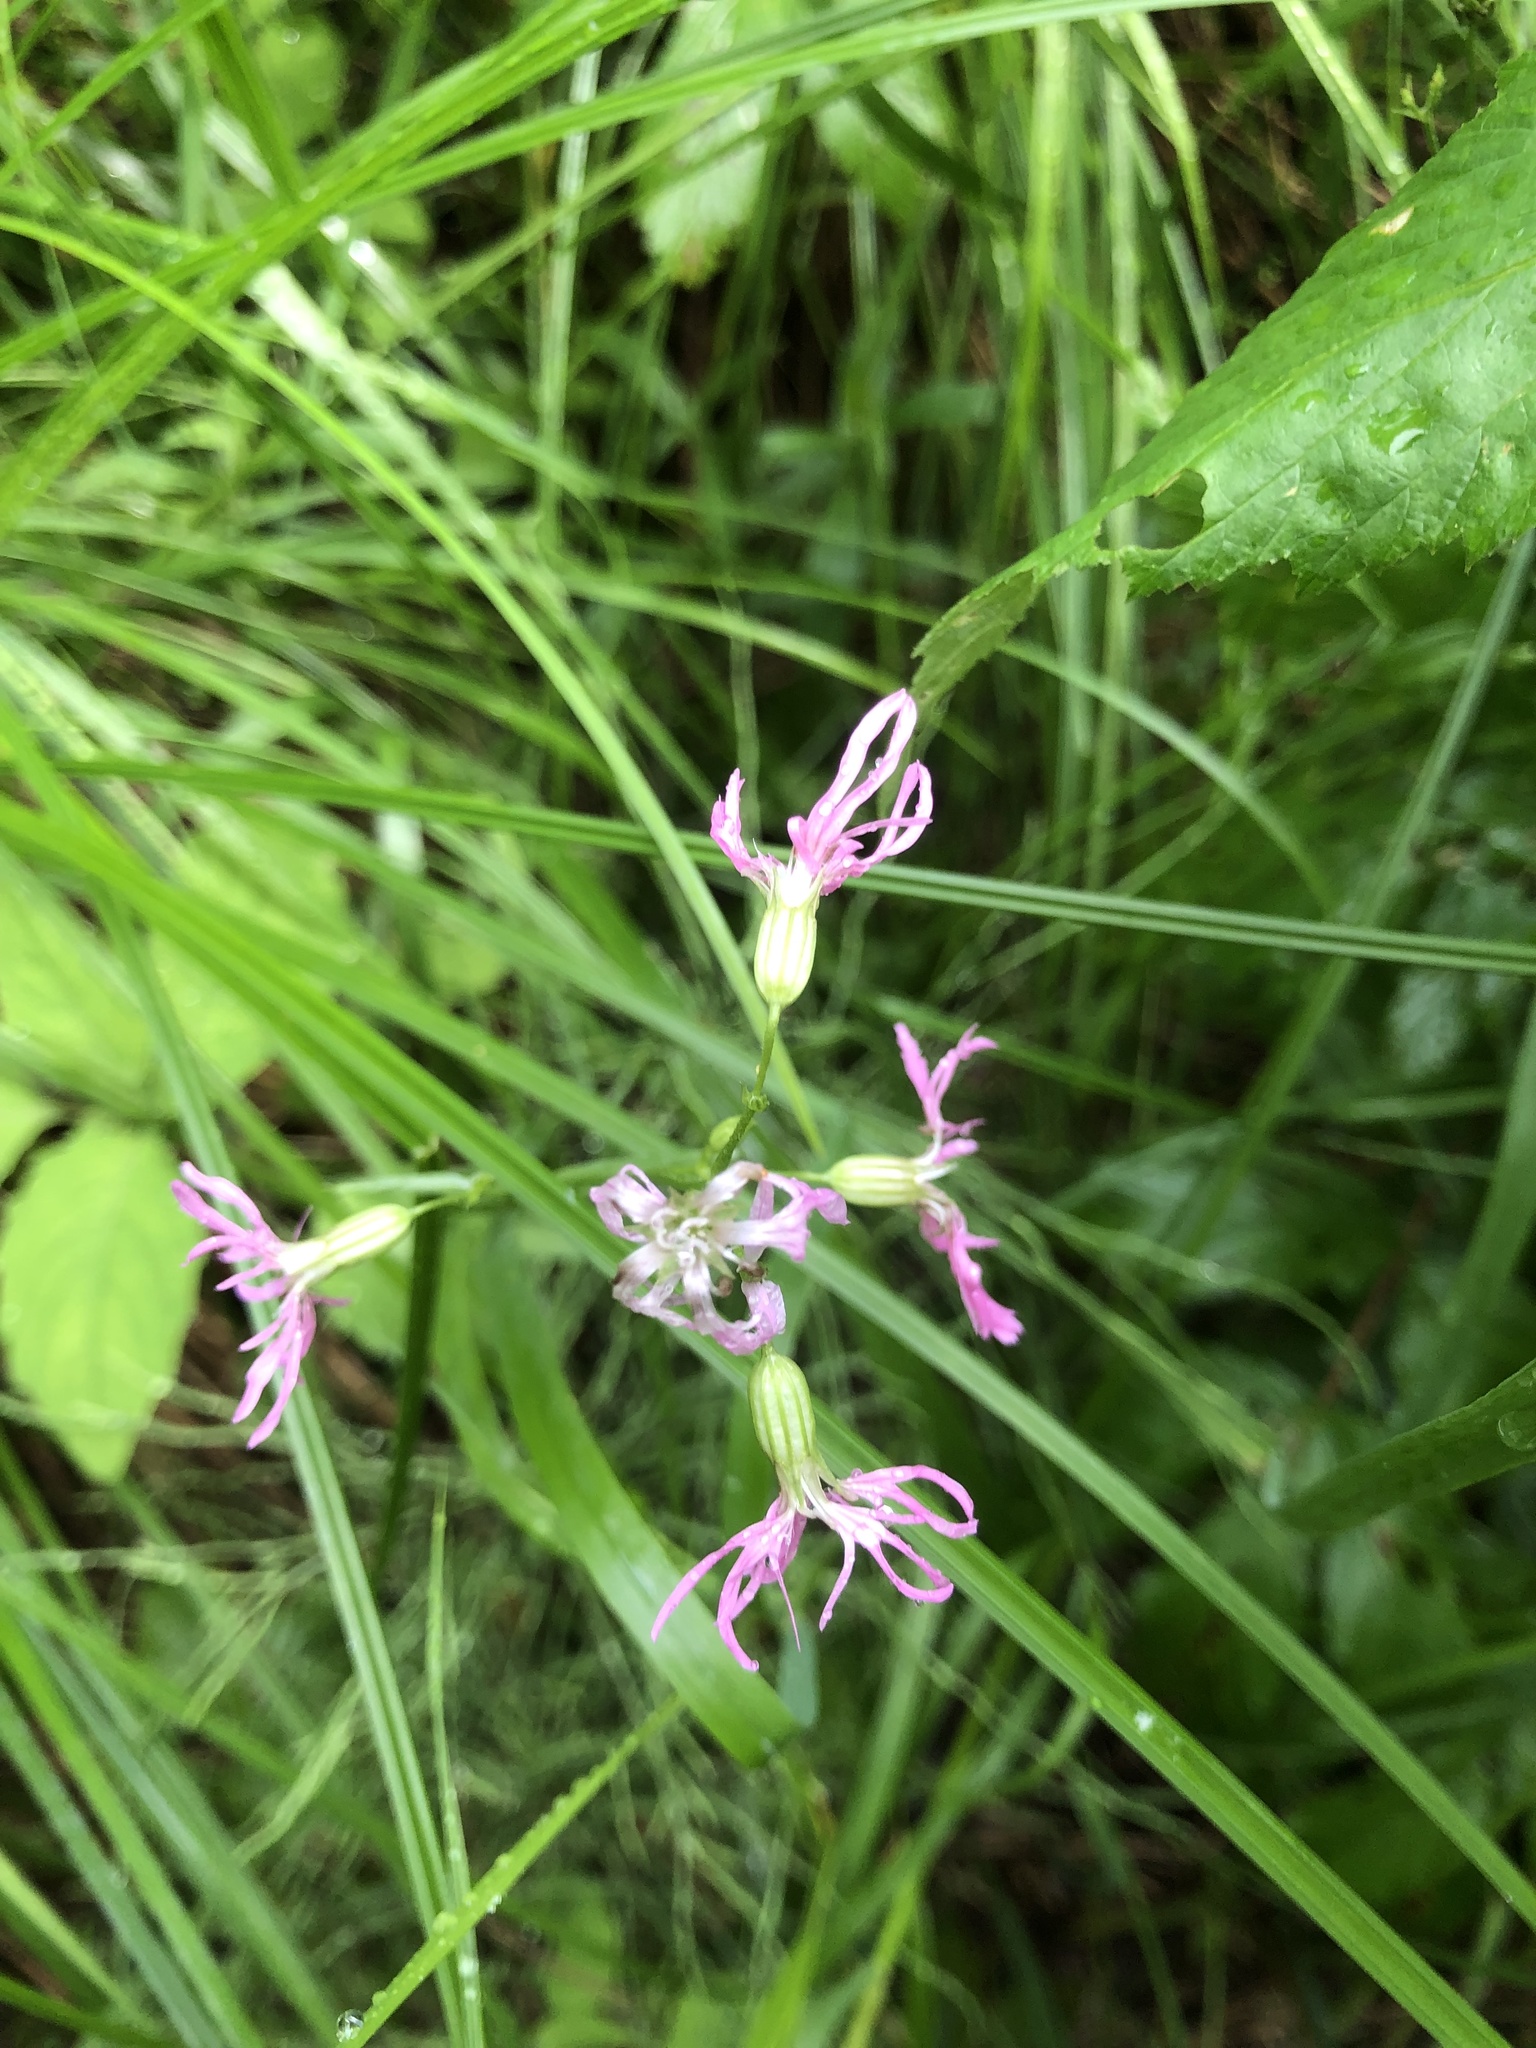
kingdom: Plantae
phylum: Tracheophyta
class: Magnoliopsida
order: Caryophyllales
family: Caryophyllaceae
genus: Silene
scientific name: Silene flos-cuculi
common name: Ragged-robin
